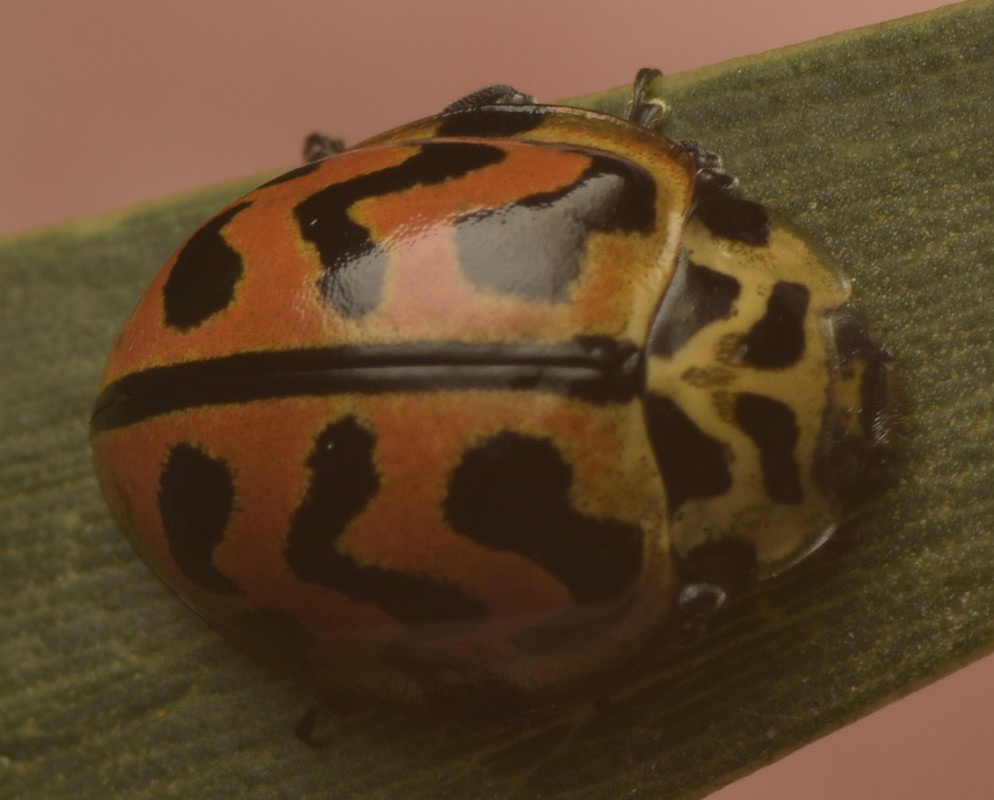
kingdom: Animalia
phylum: Arthropoda
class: Insecta
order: Coleoptera
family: Coccinellidae
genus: Cleobora
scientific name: Cleobora
